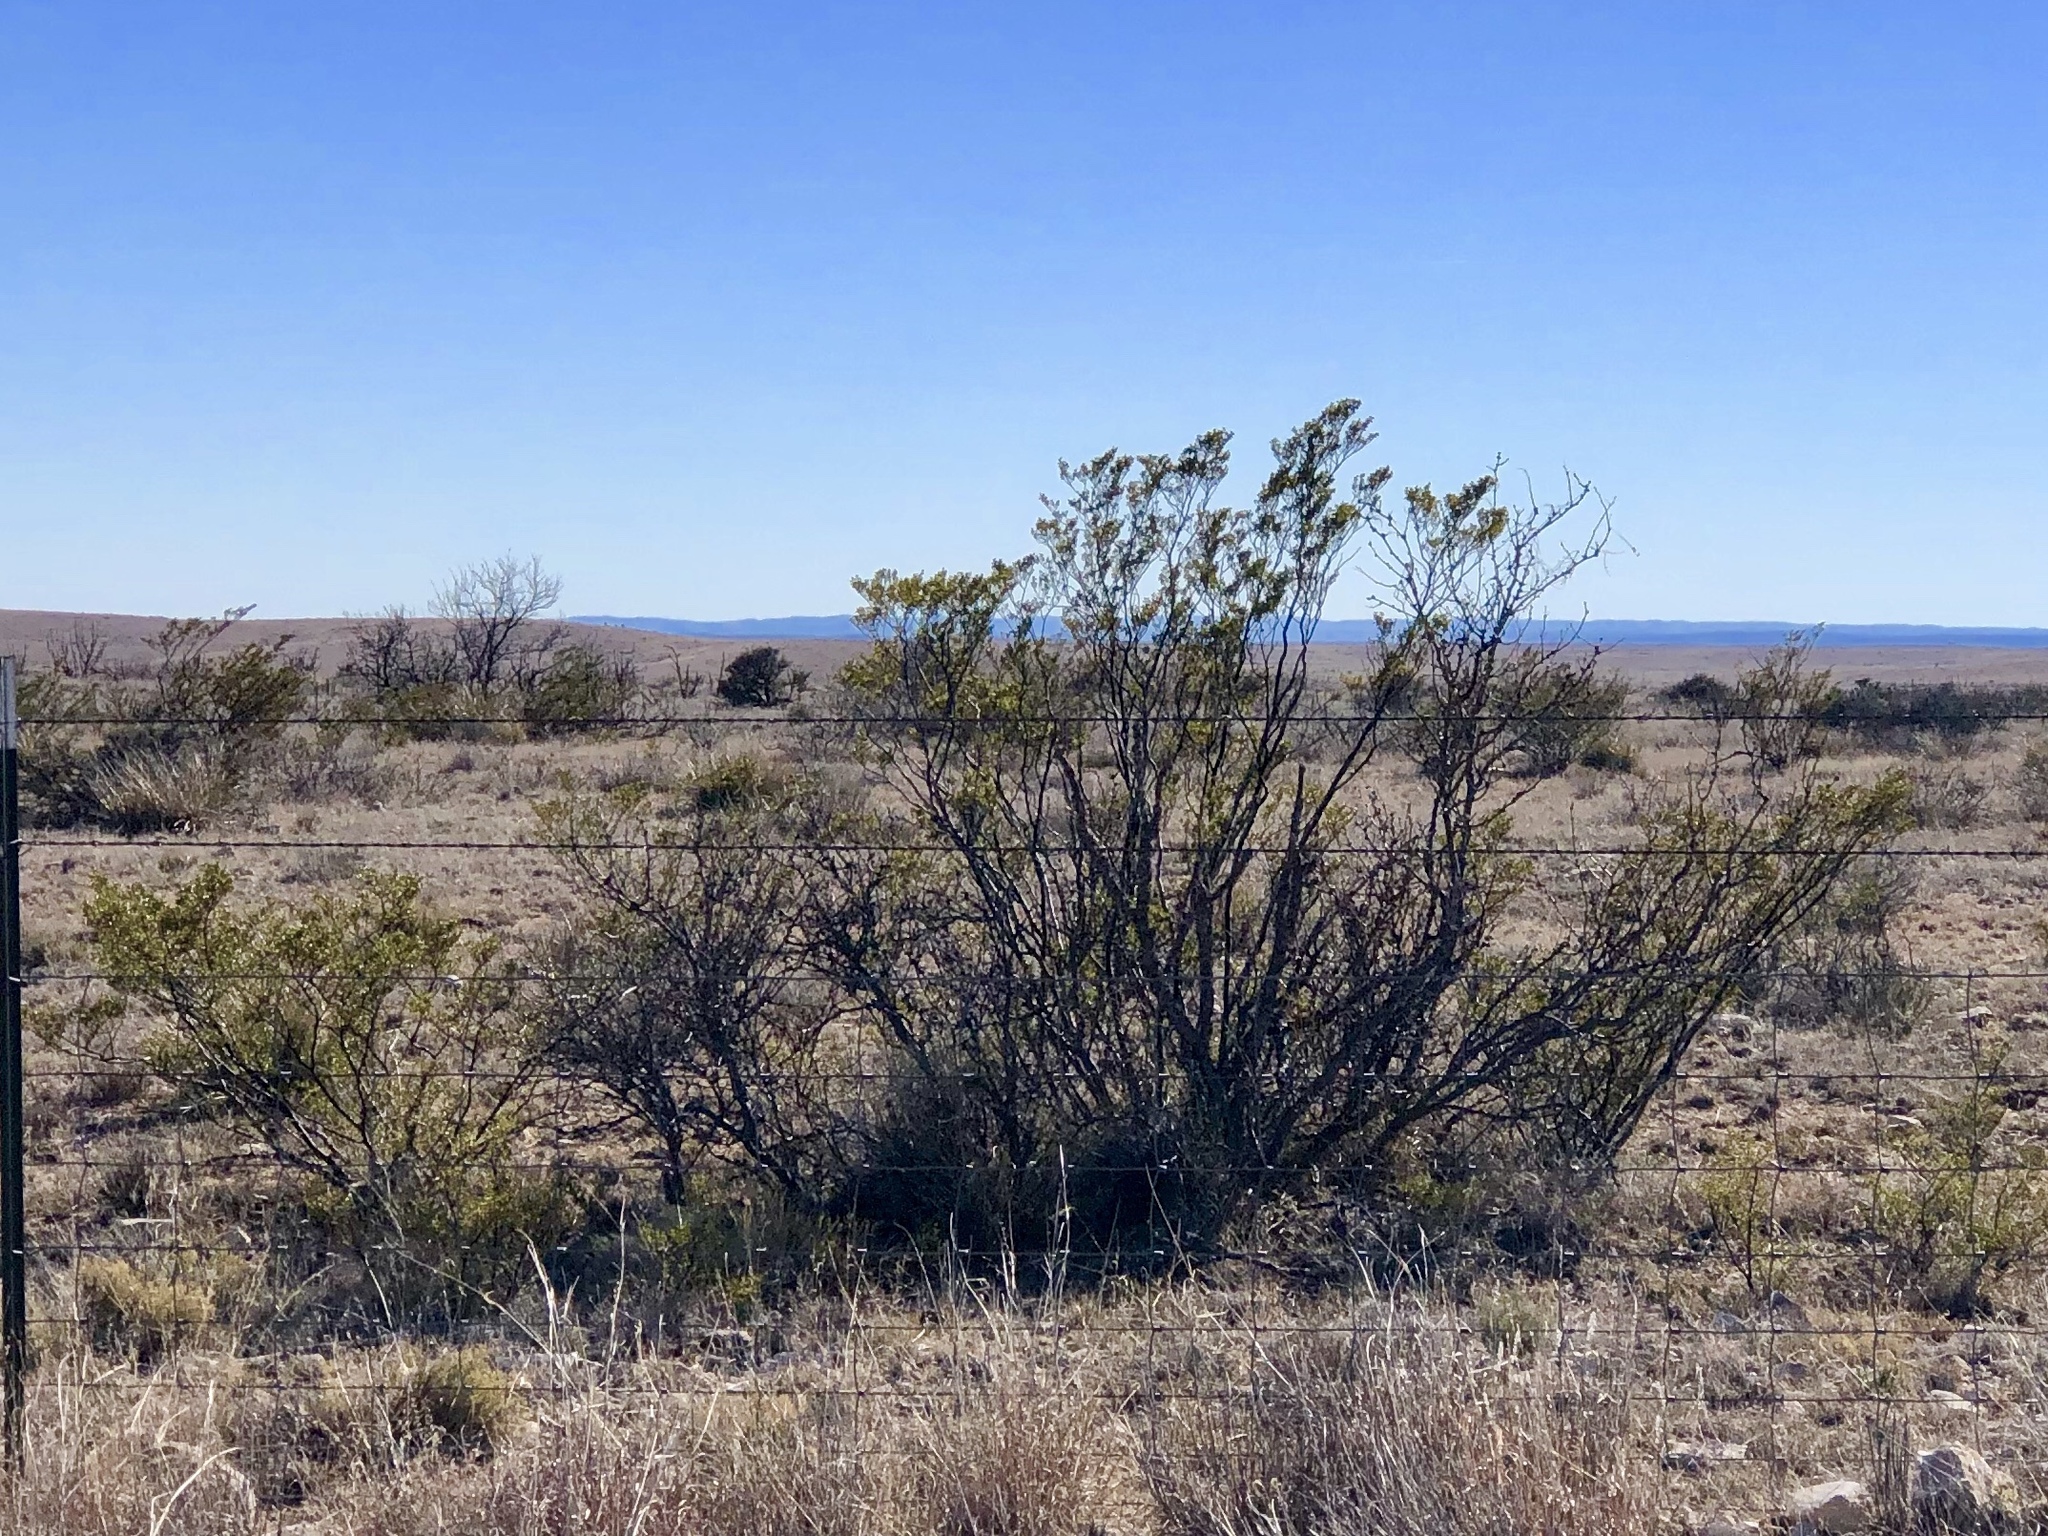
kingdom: Plantae
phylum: Tracheophyta
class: Magnoliopsida
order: Zygophyllales
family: Zygophyllaceae
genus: Larrea
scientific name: Larrea tridentata
